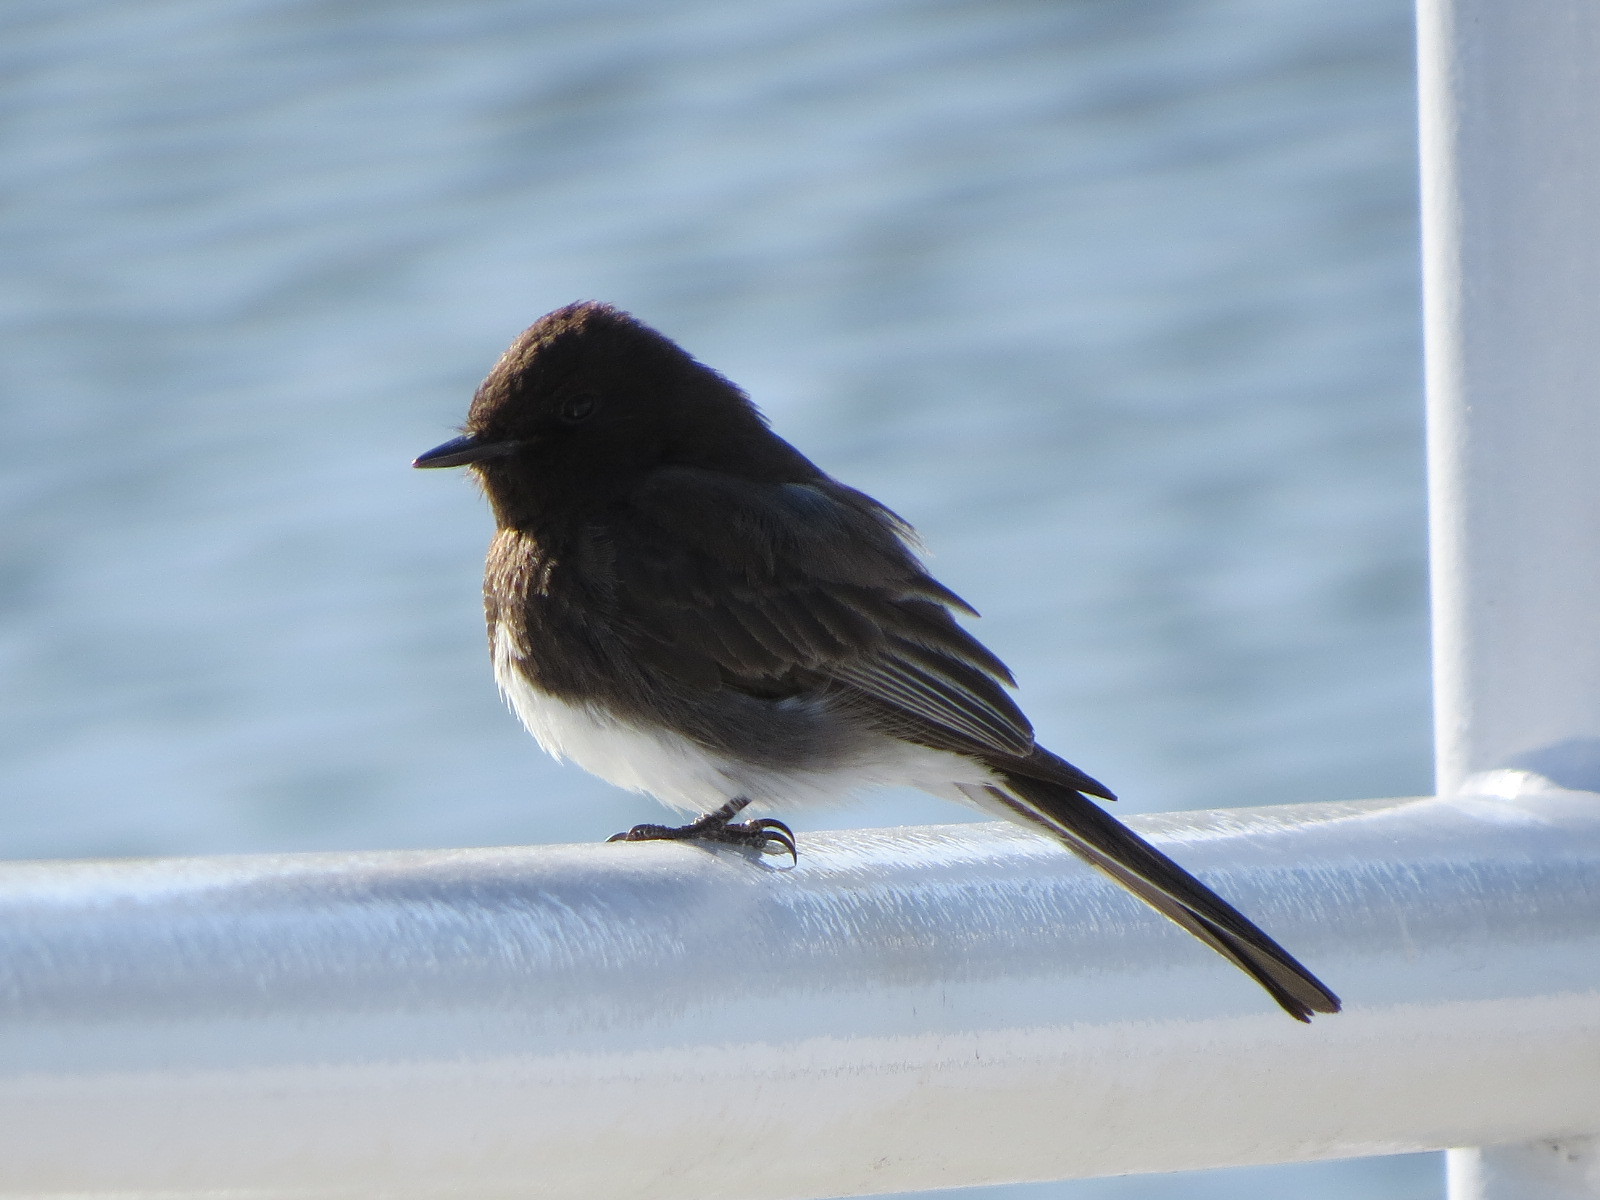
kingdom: Animalia
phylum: Chordata
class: Aves
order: Passeriformes
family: Tyrannidae
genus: Sayornis
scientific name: Sayornis nigricans
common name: Black phoebe
